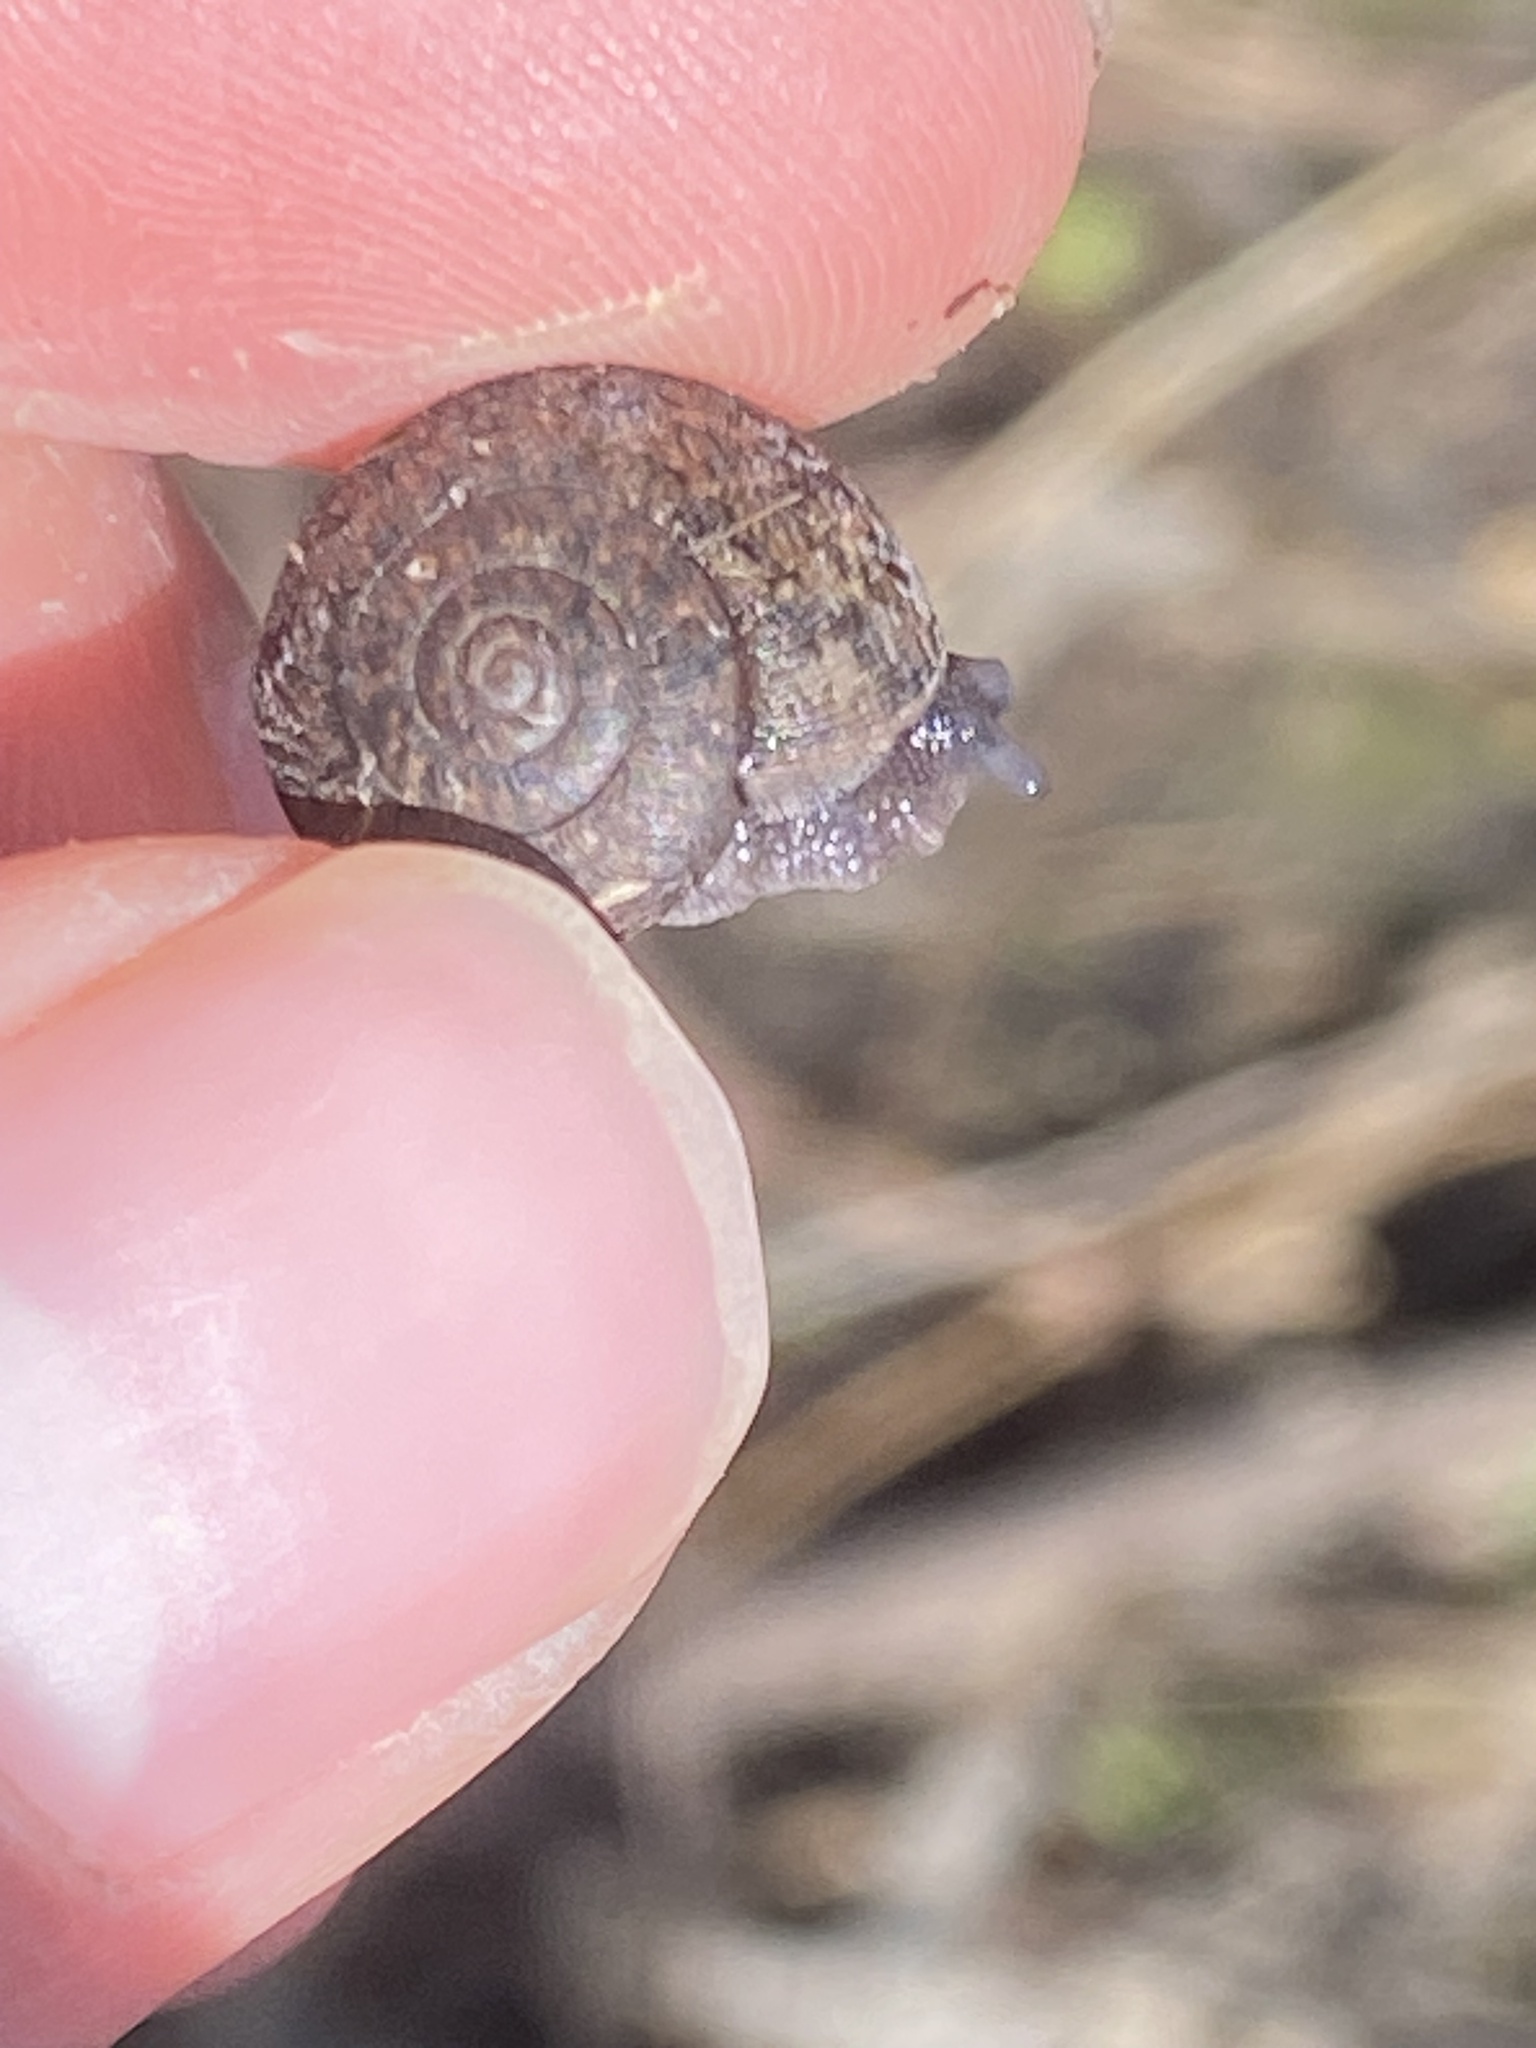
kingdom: Animalia
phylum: Mollusca
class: Gastropoda
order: Stylommatophora
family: Xanthonychidae
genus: Helminthoglypta
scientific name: Helminthoglypta nickliniana
